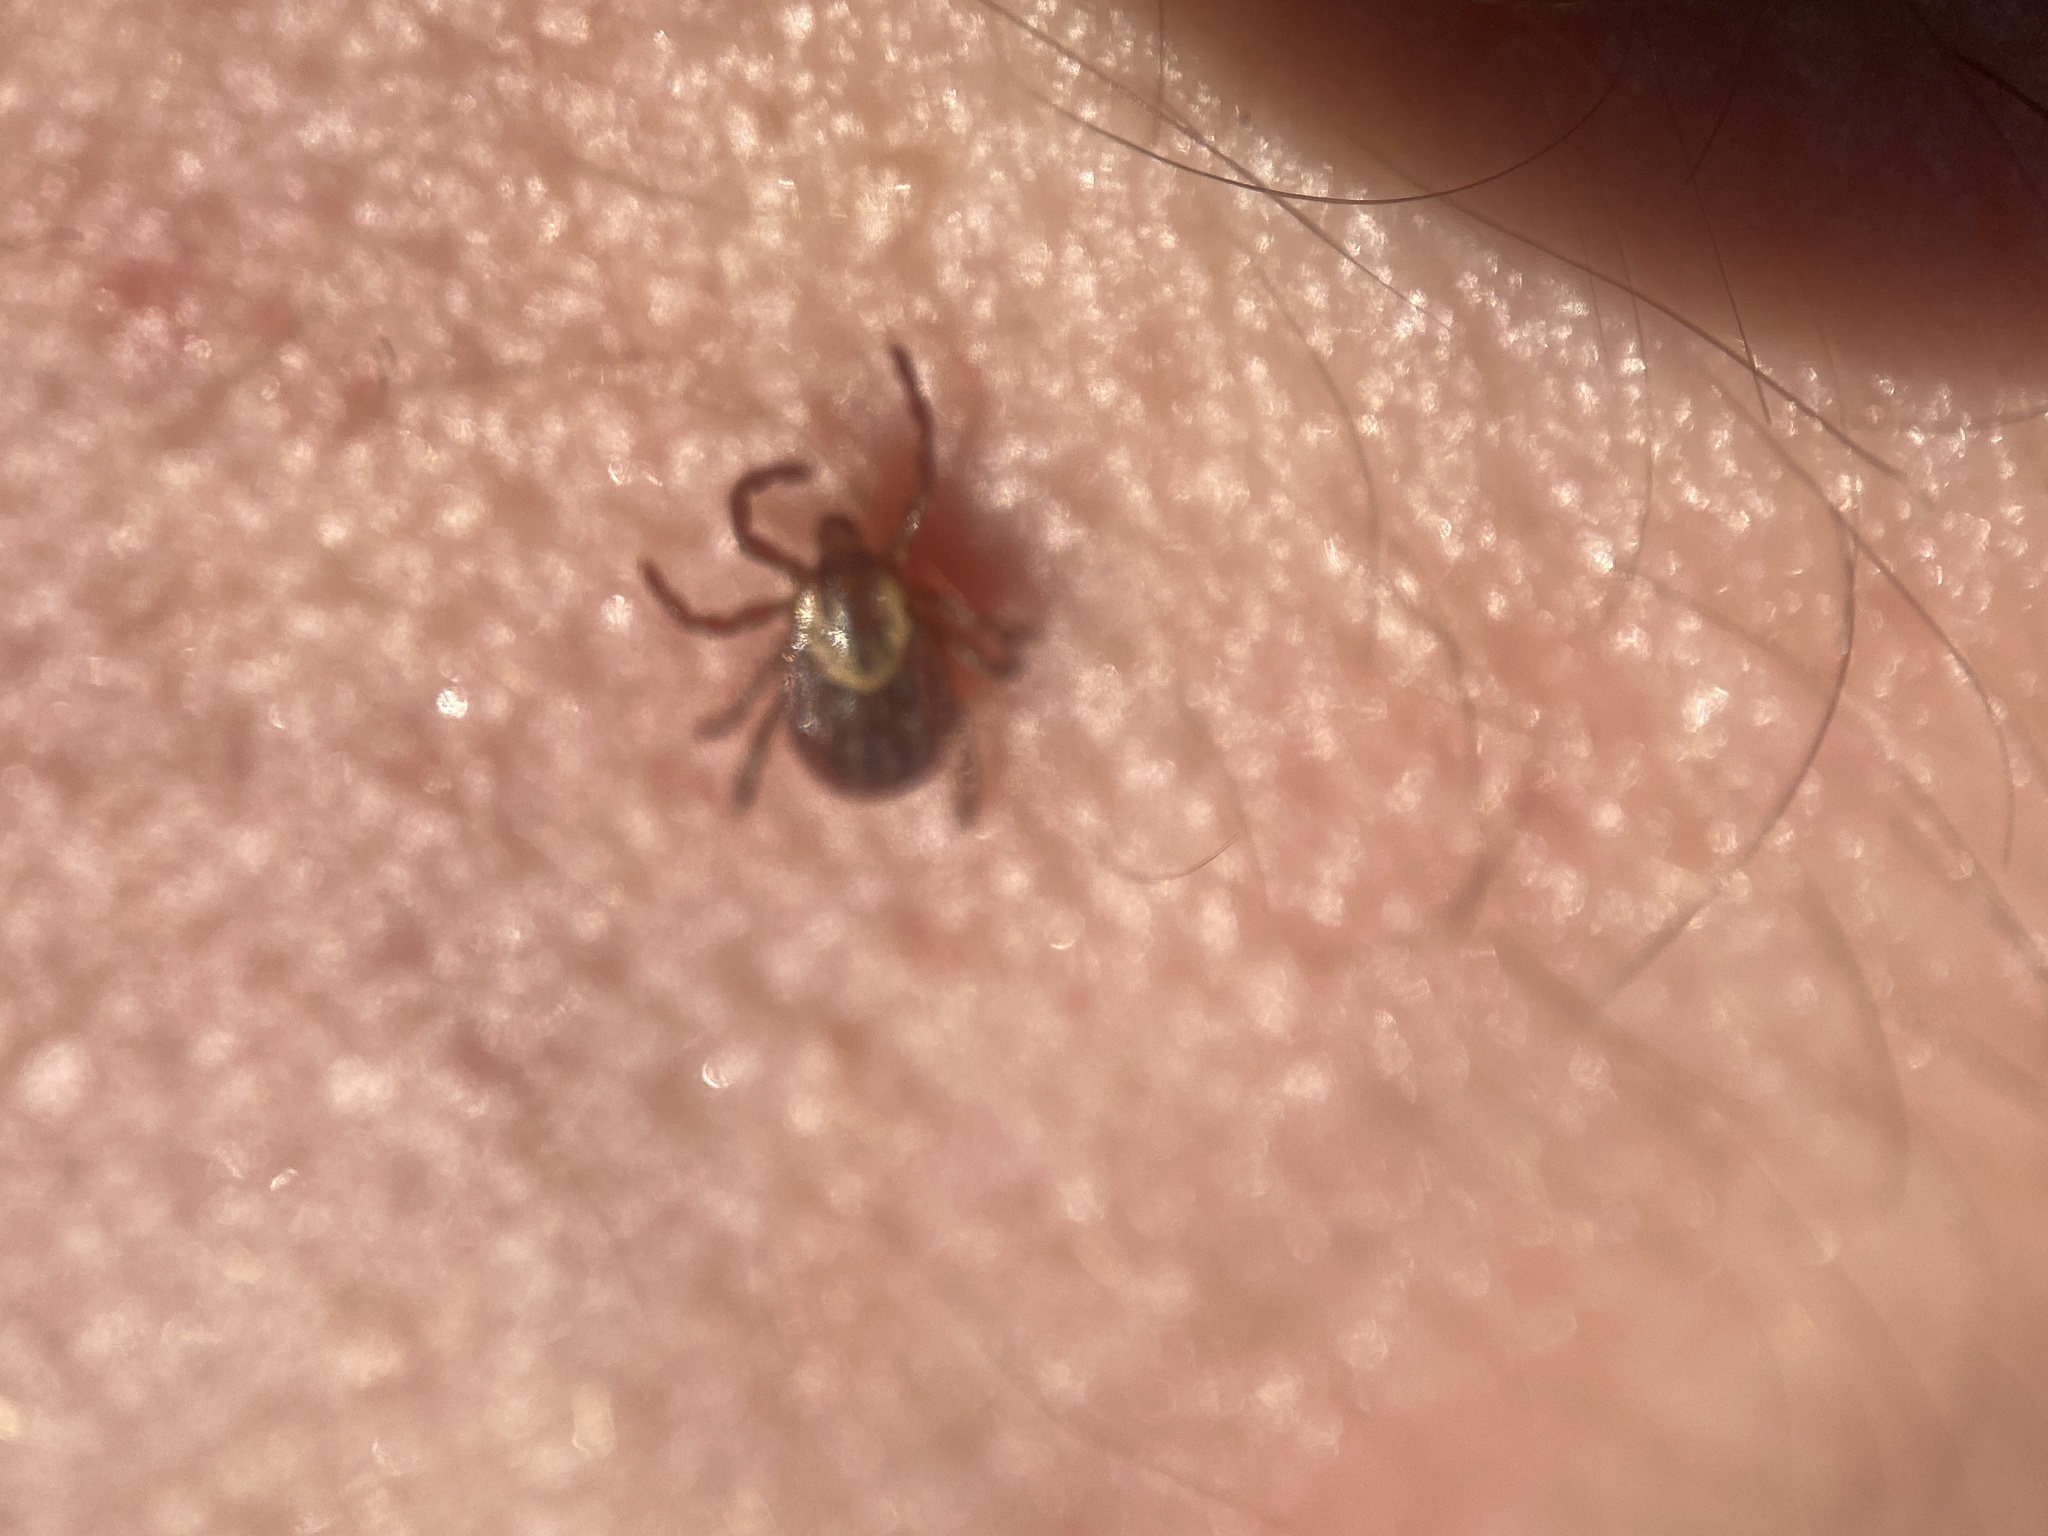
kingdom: Animalia
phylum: Arthropoda
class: Arachnida
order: Ixodida
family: Ixodidae
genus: Dermacentor
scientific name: Dermacentor variabilis
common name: American dog tick
